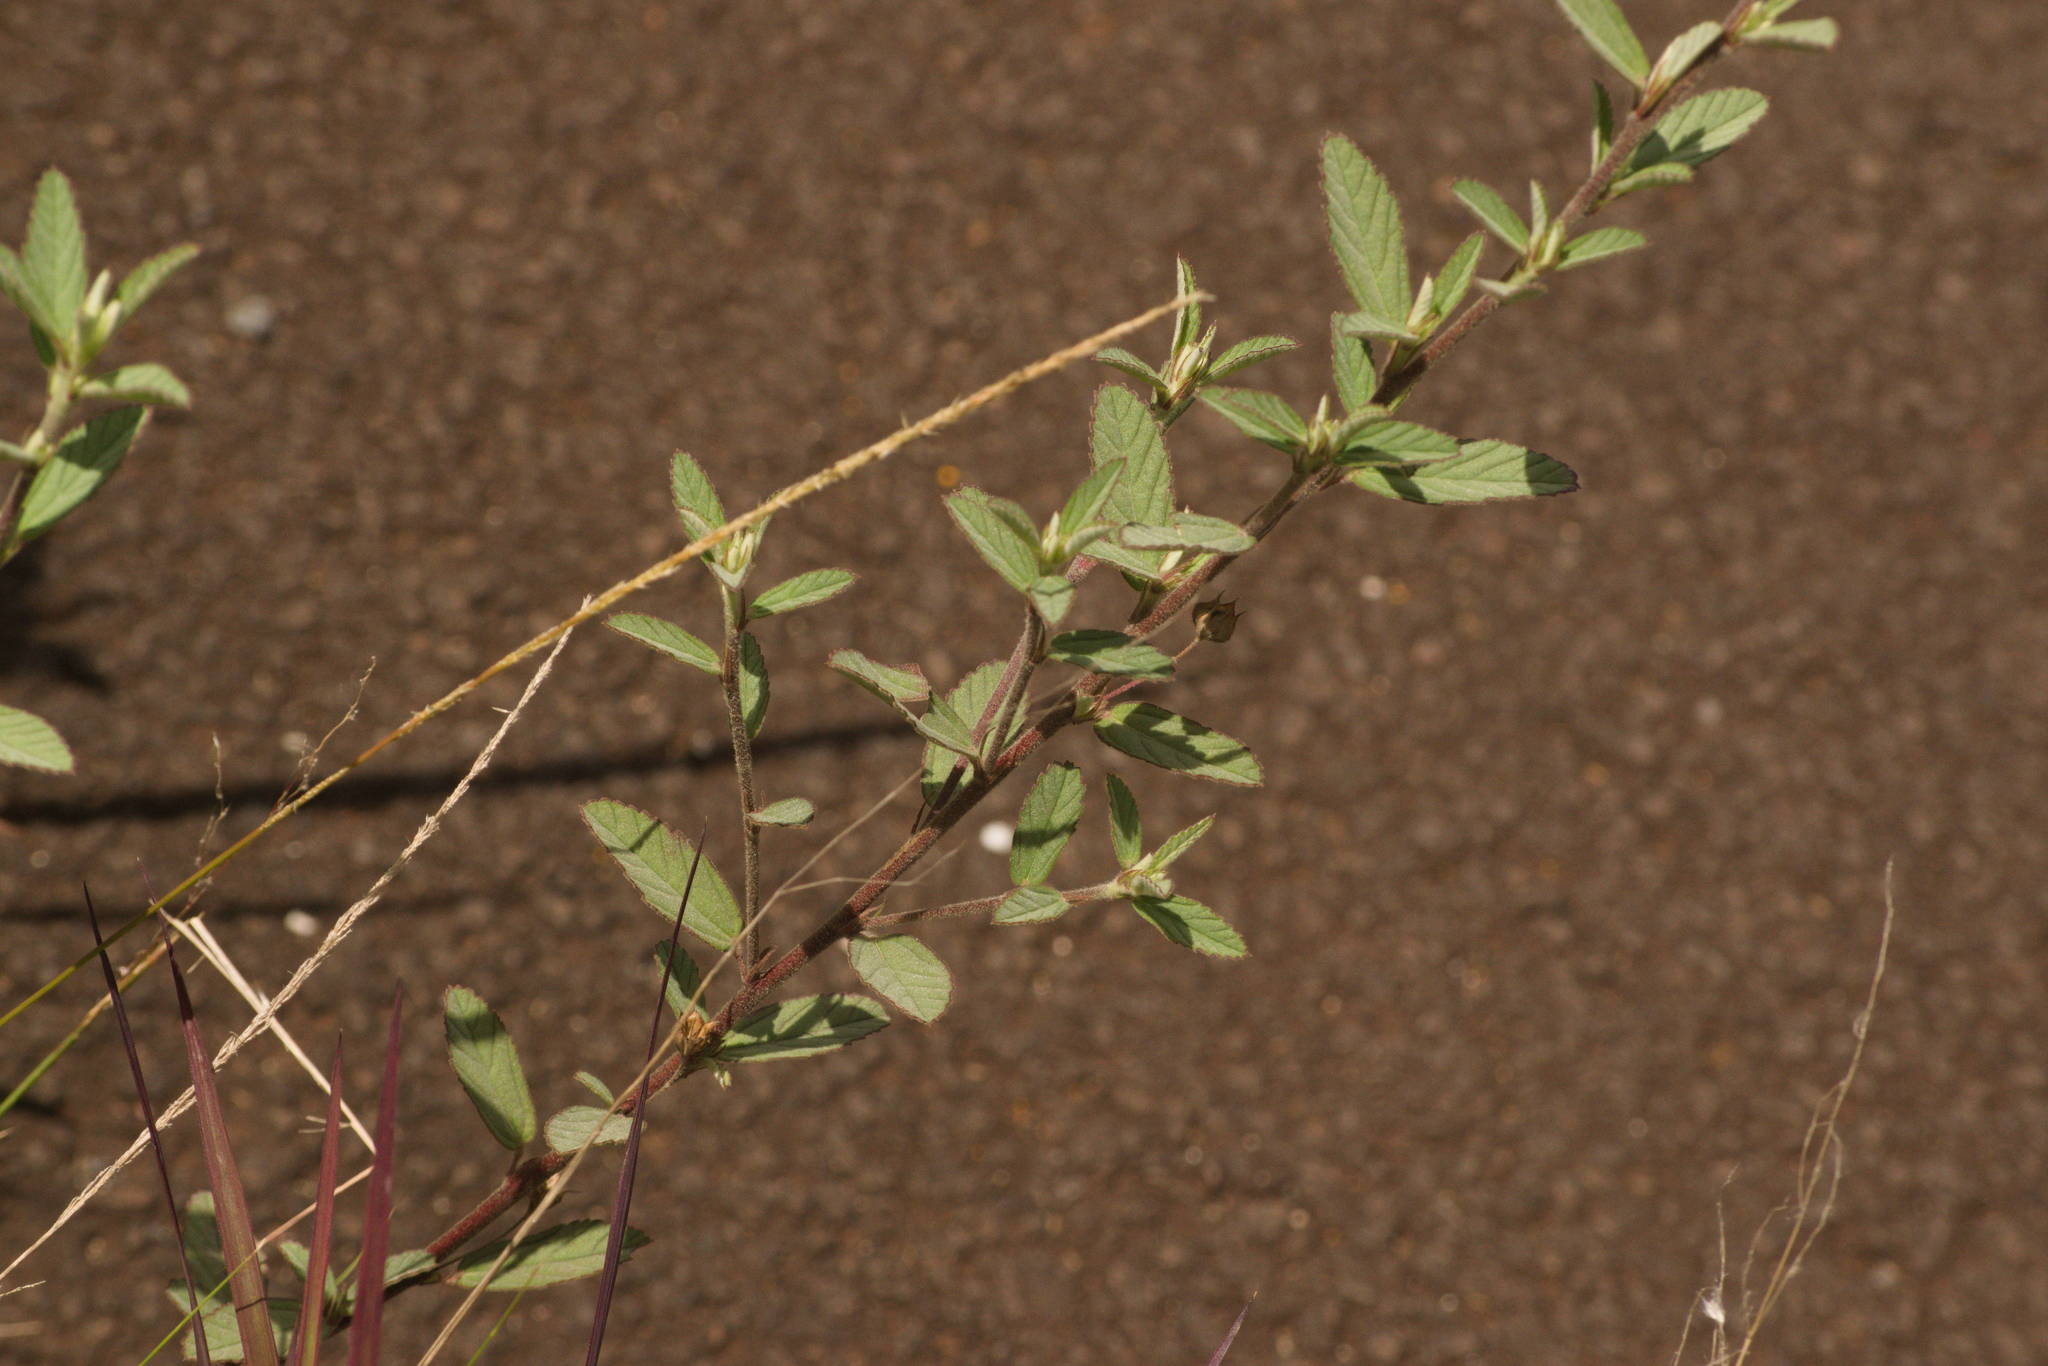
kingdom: Plantae
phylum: Tracheophyta
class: Magnoliopsida
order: Malvales
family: Malvaceae
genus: Waltheria
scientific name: Waltheria indica
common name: Leather-coat
